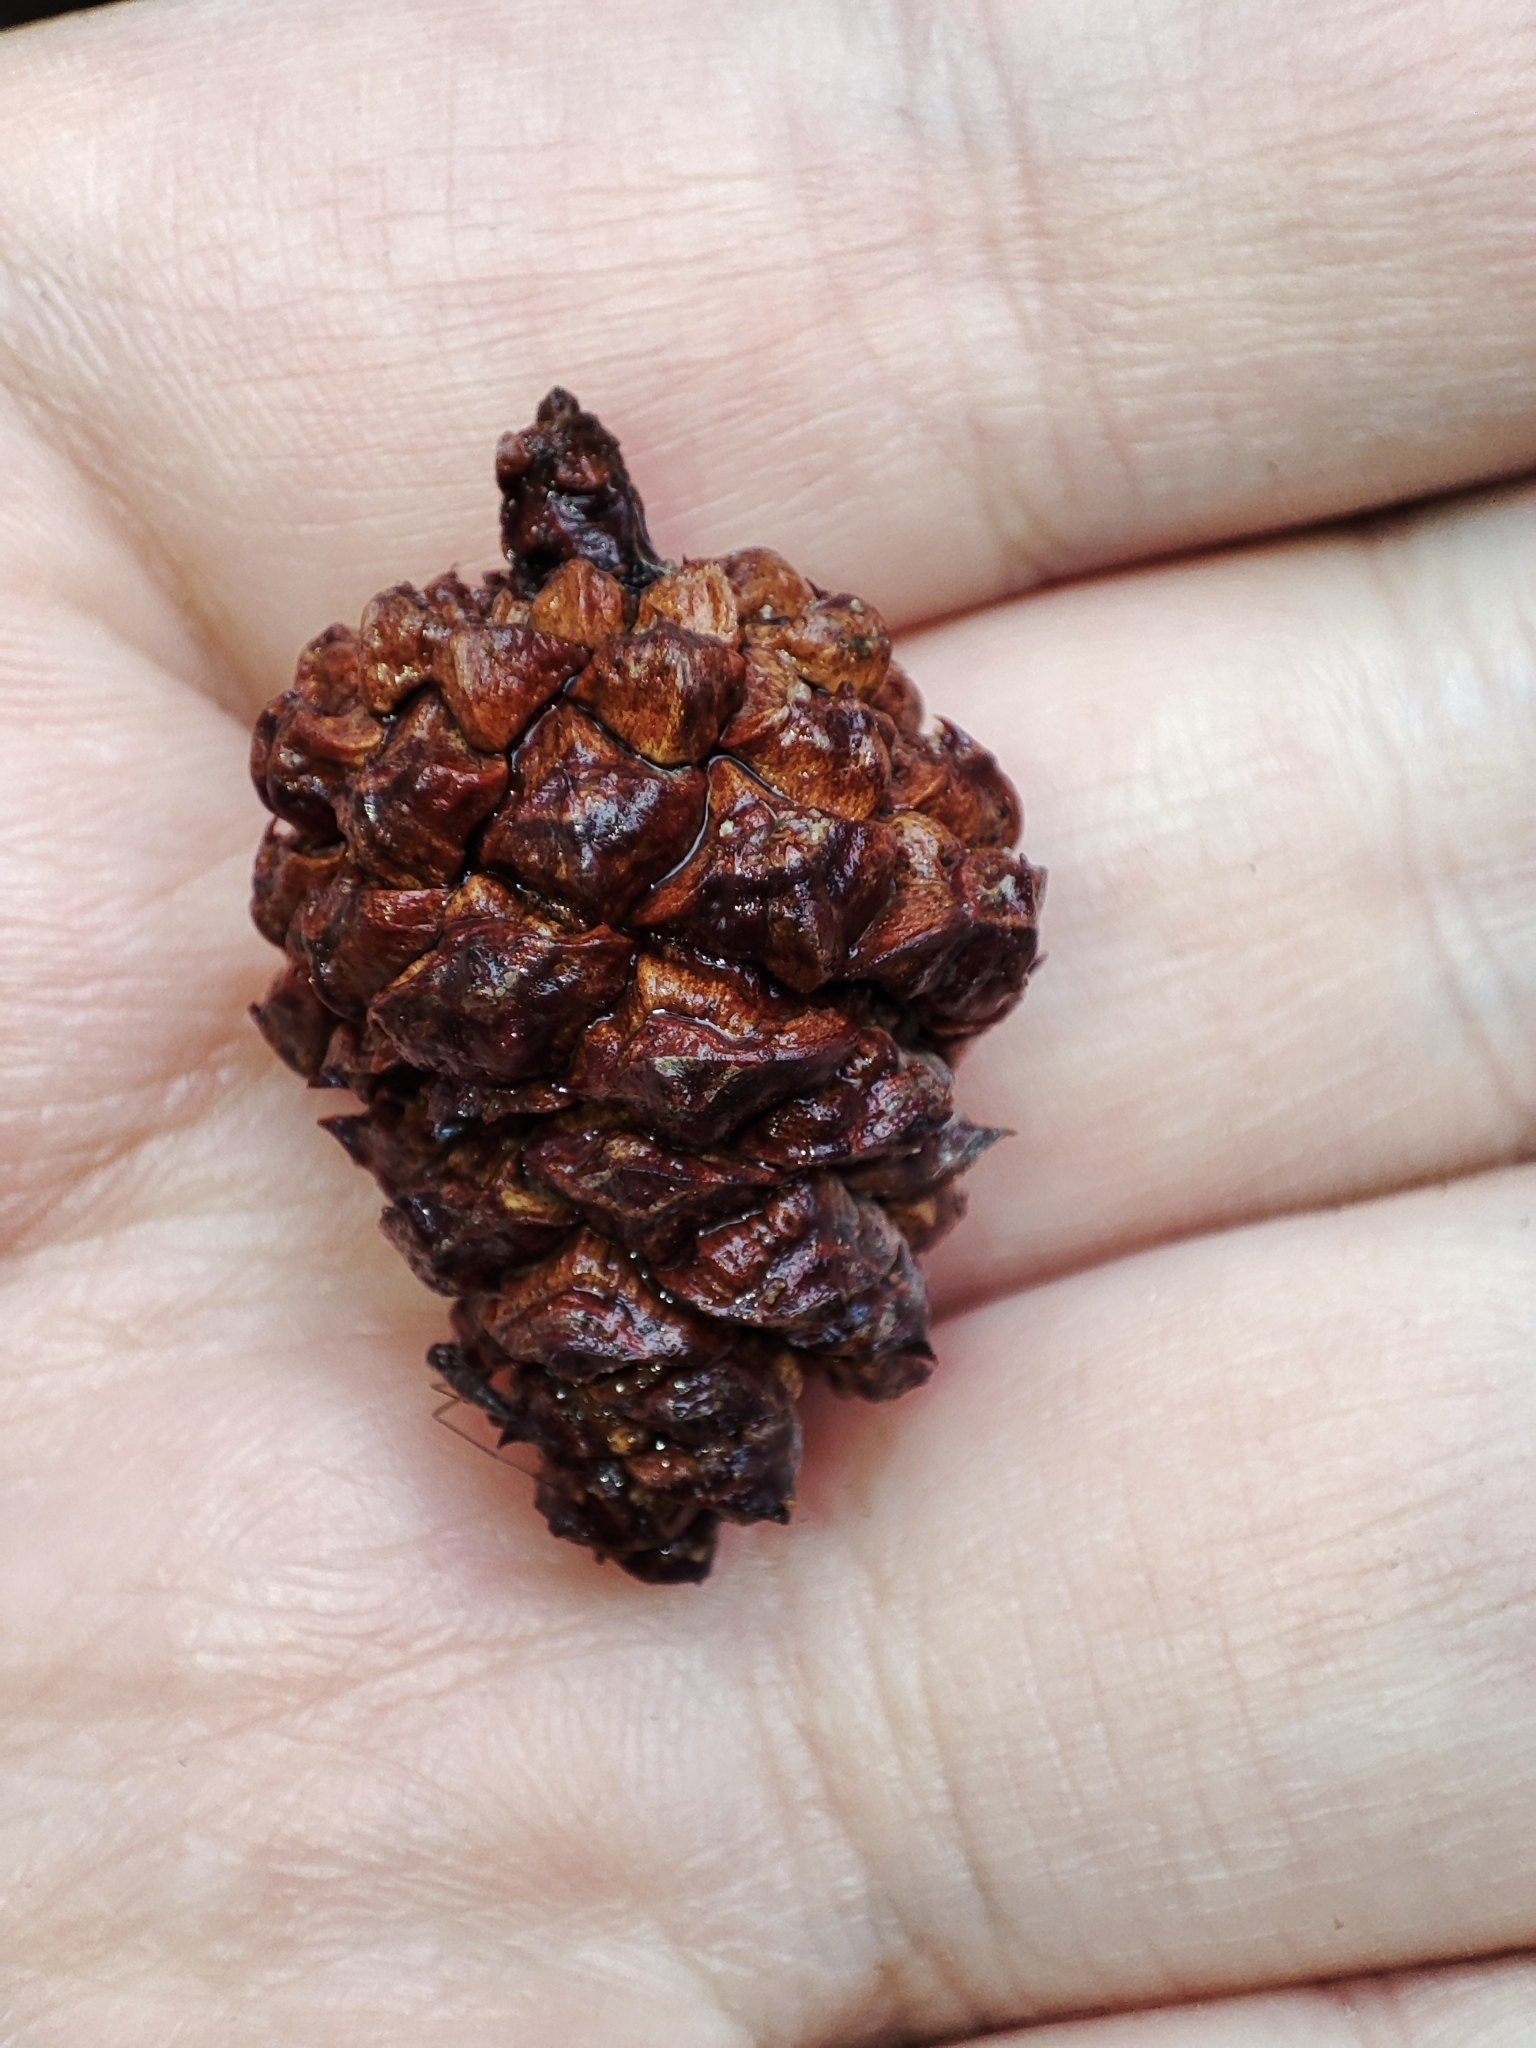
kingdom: Plantae
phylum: Tracheophyta
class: Pinopsida
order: Pinales
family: Pinaceae
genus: Pinus
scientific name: Pinus mugo
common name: Mugo pine
